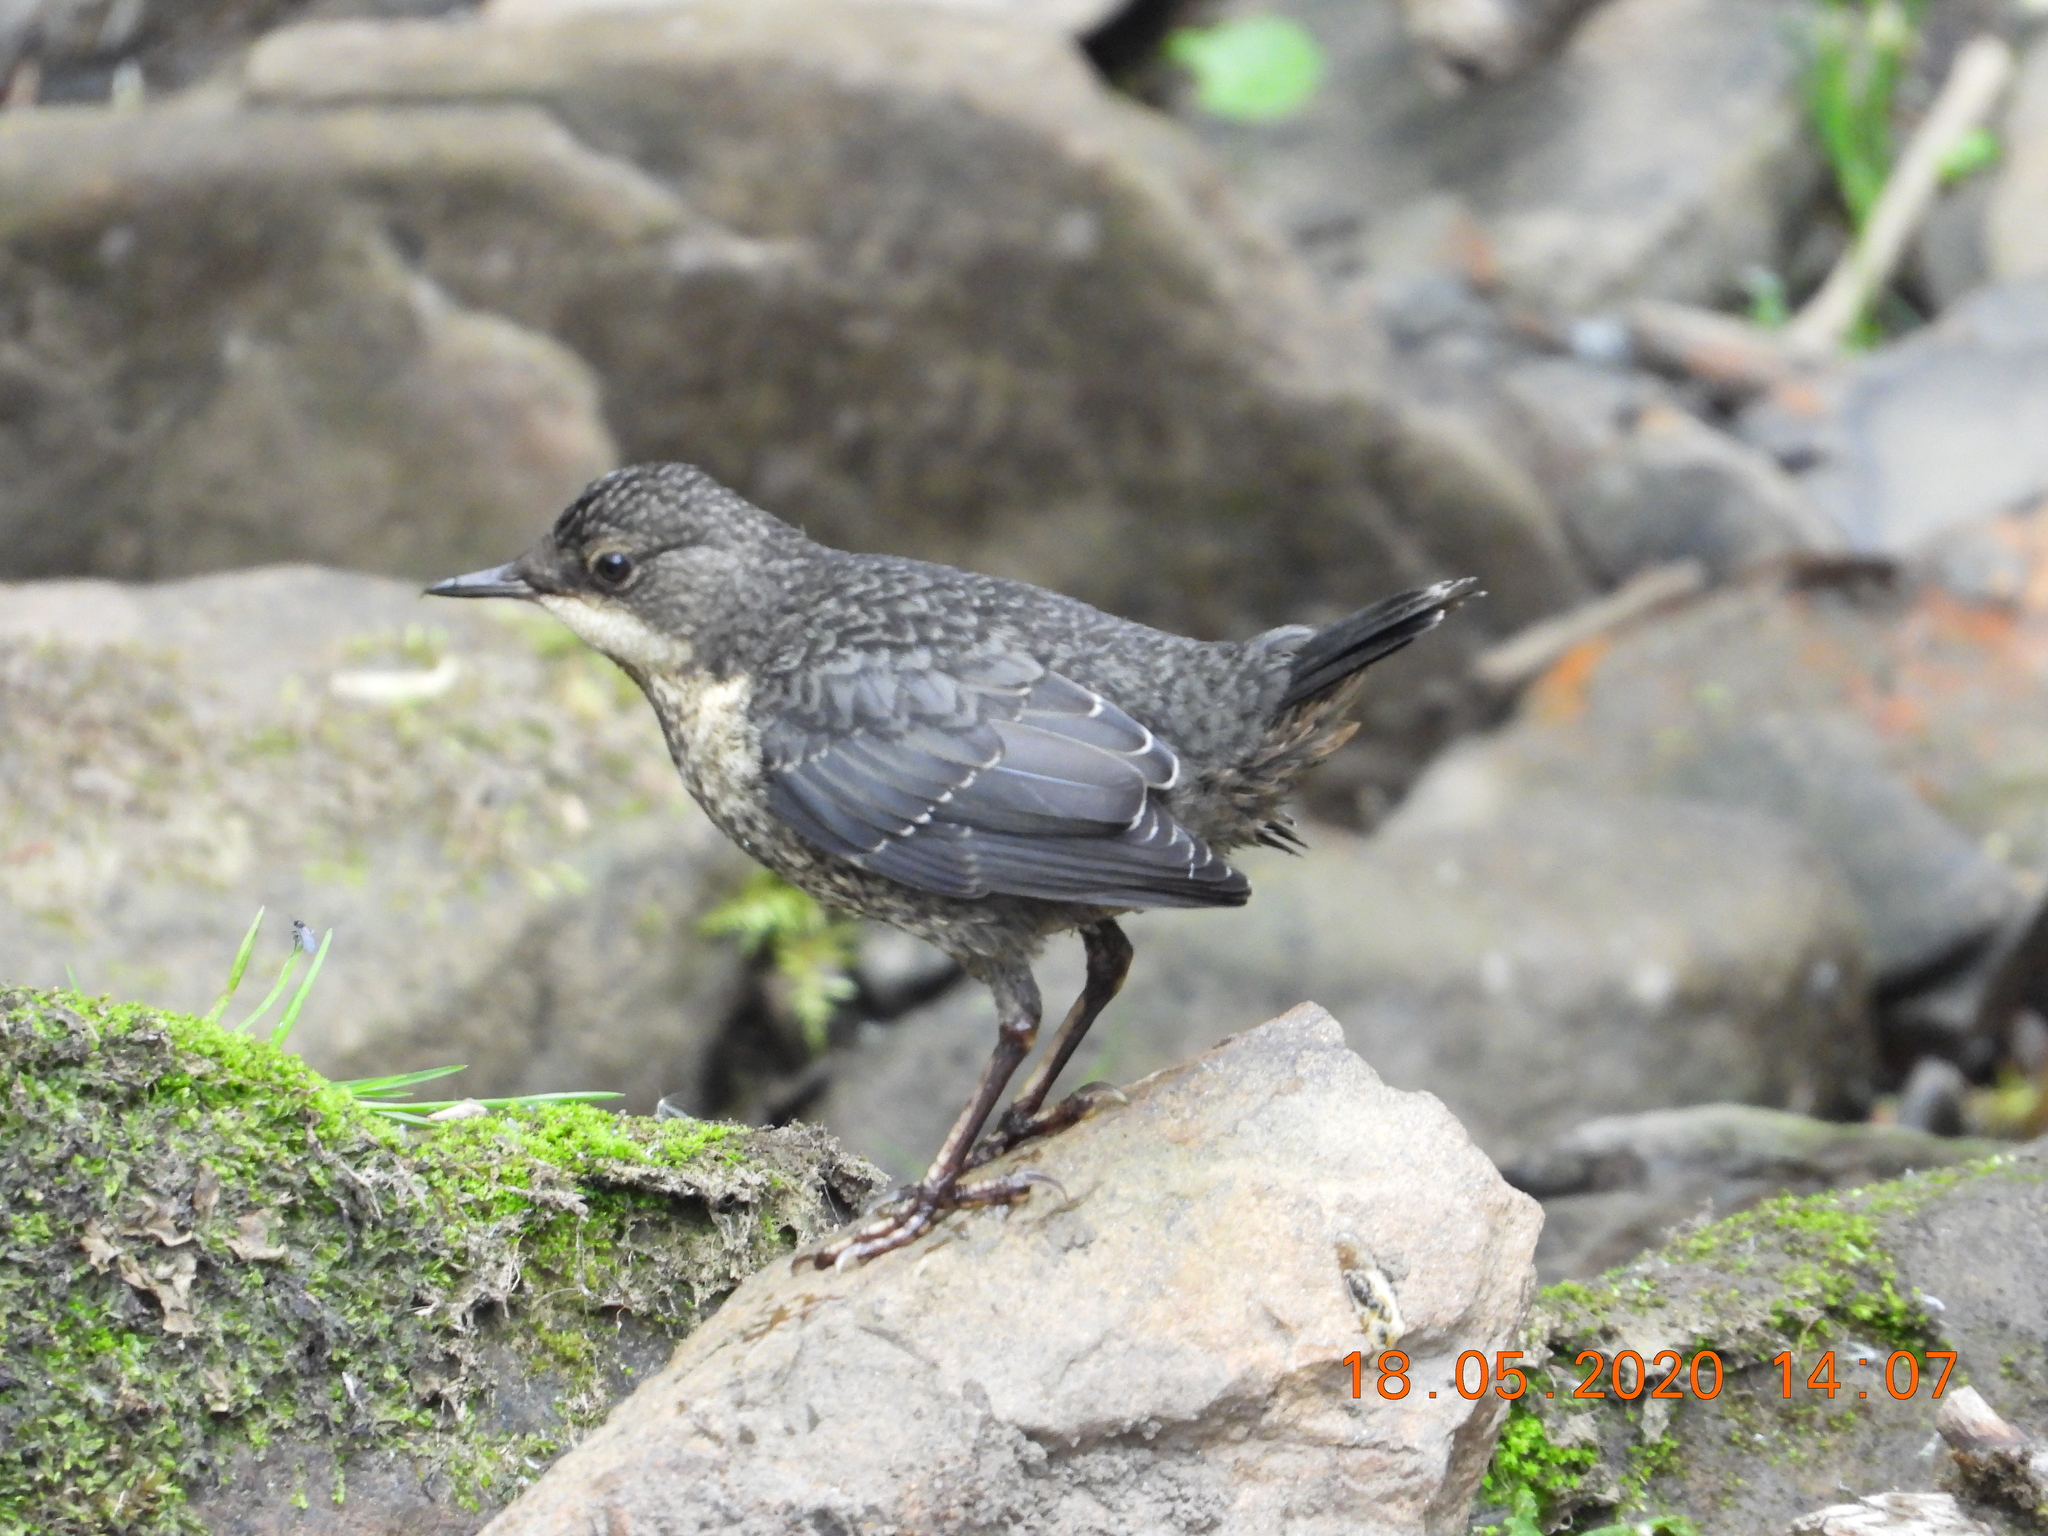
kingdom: Animalia
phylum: Chordata
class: Aves
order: Passeriformes
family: Cinclidae
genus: Cinclus
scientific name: Cinclus cinclus
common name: White-throated dipper
